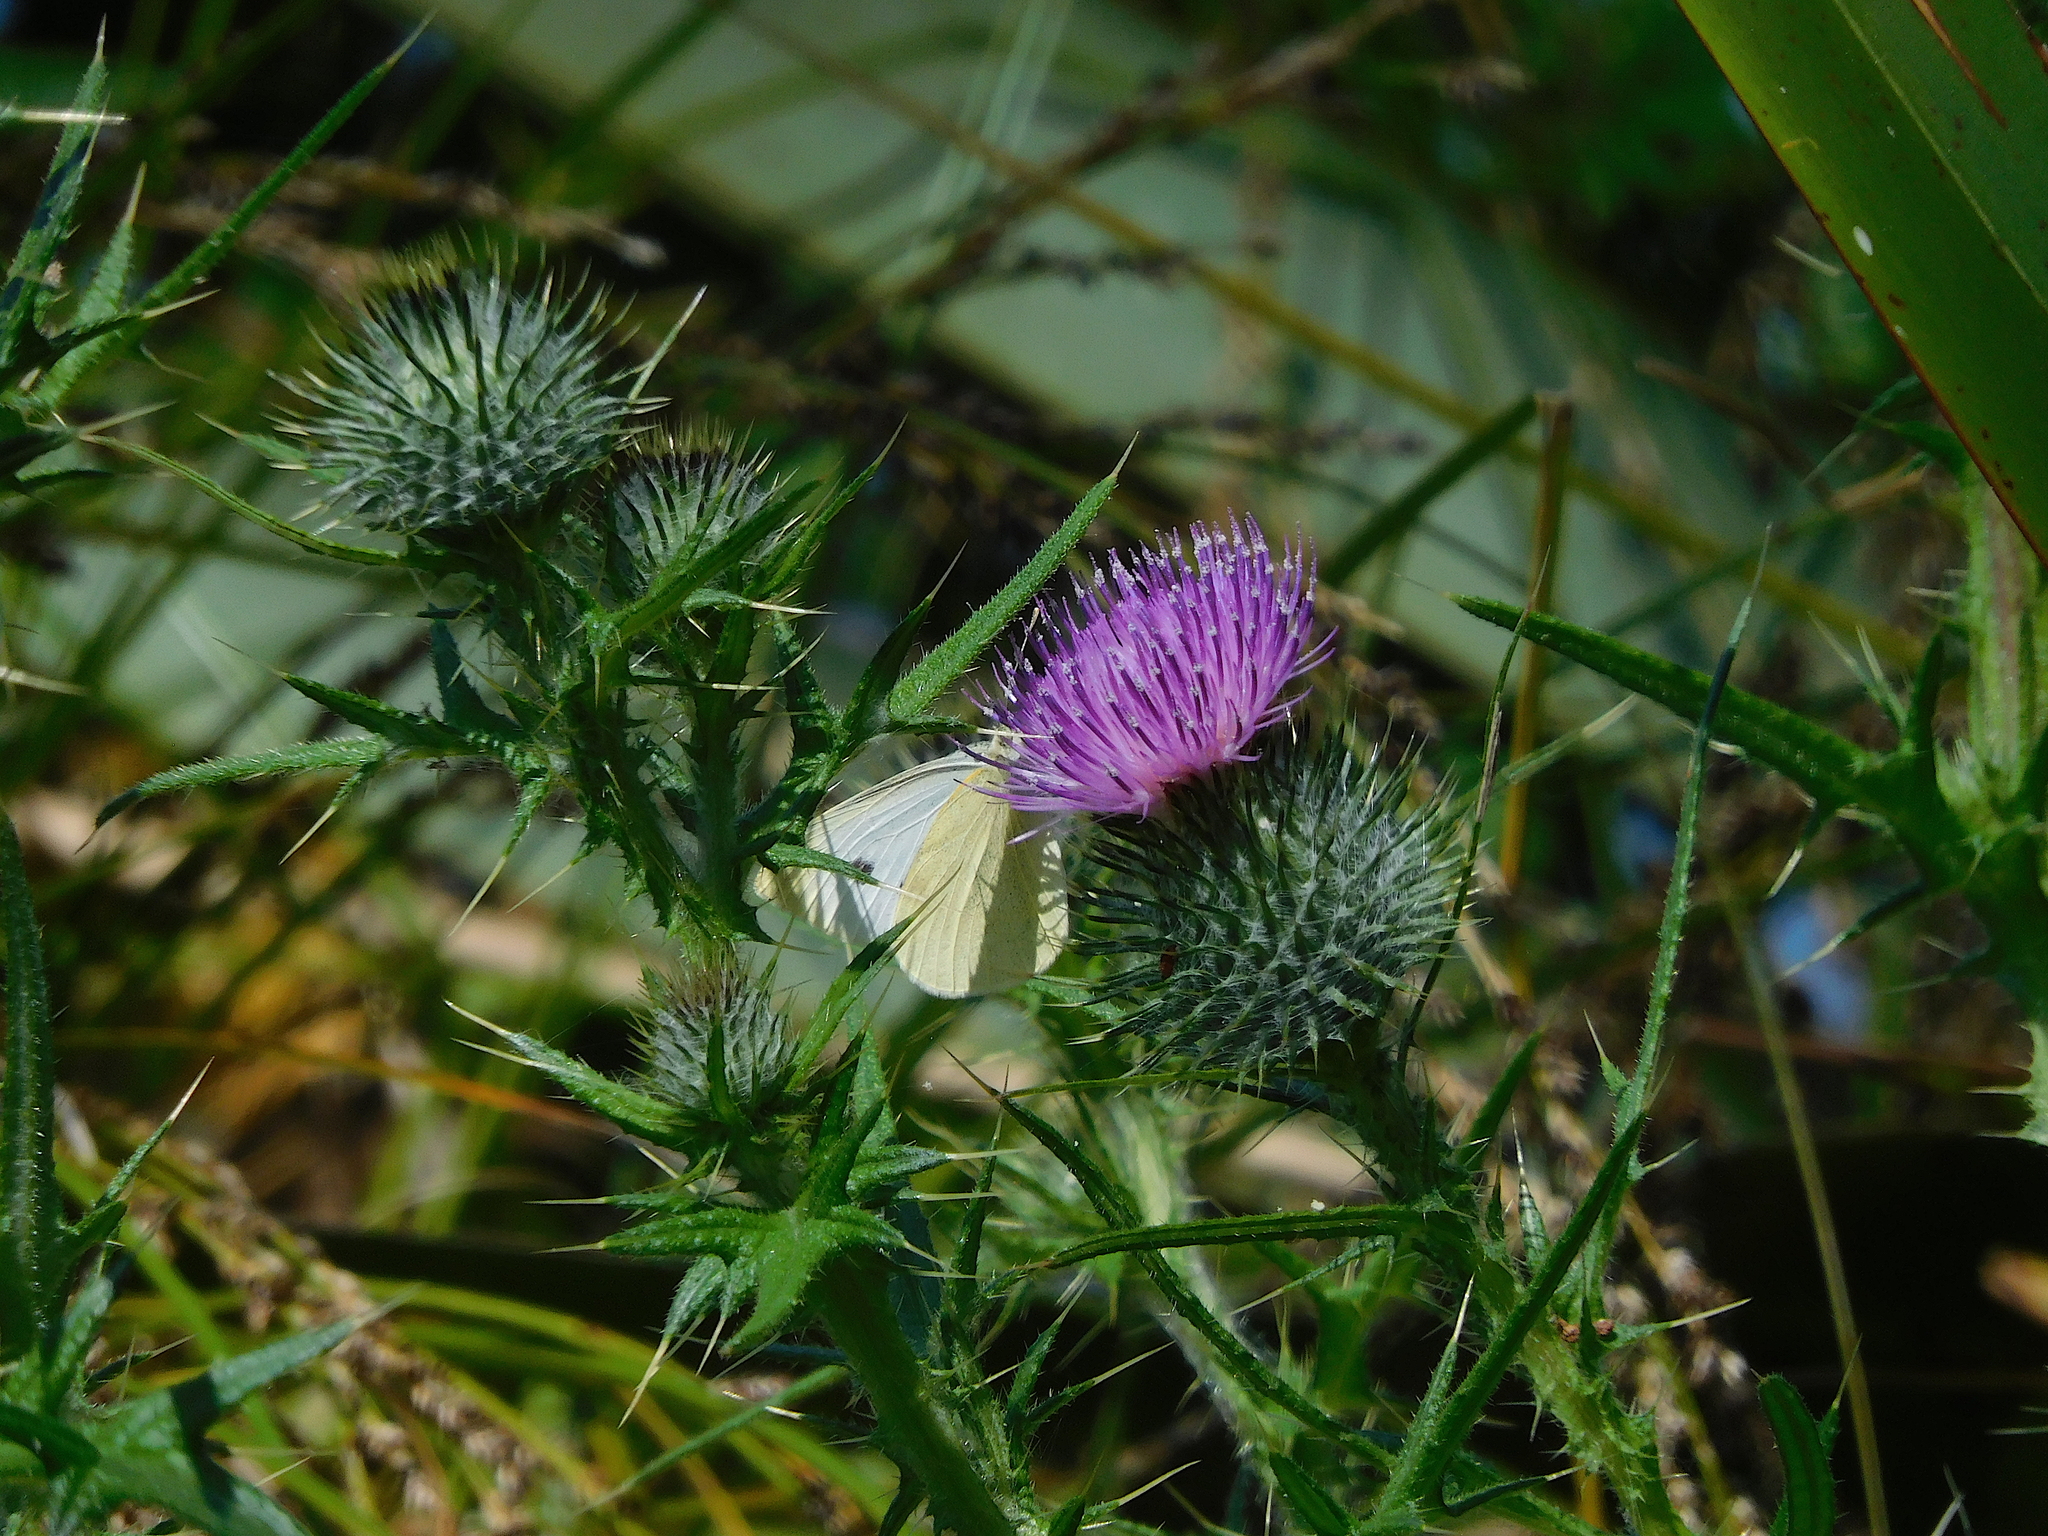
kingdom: Animalia
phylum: Arthropoda
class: Insecta
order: Lepidoptera
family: Pieridae
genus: Pieris
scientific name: Pieris rapae
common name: Small white
